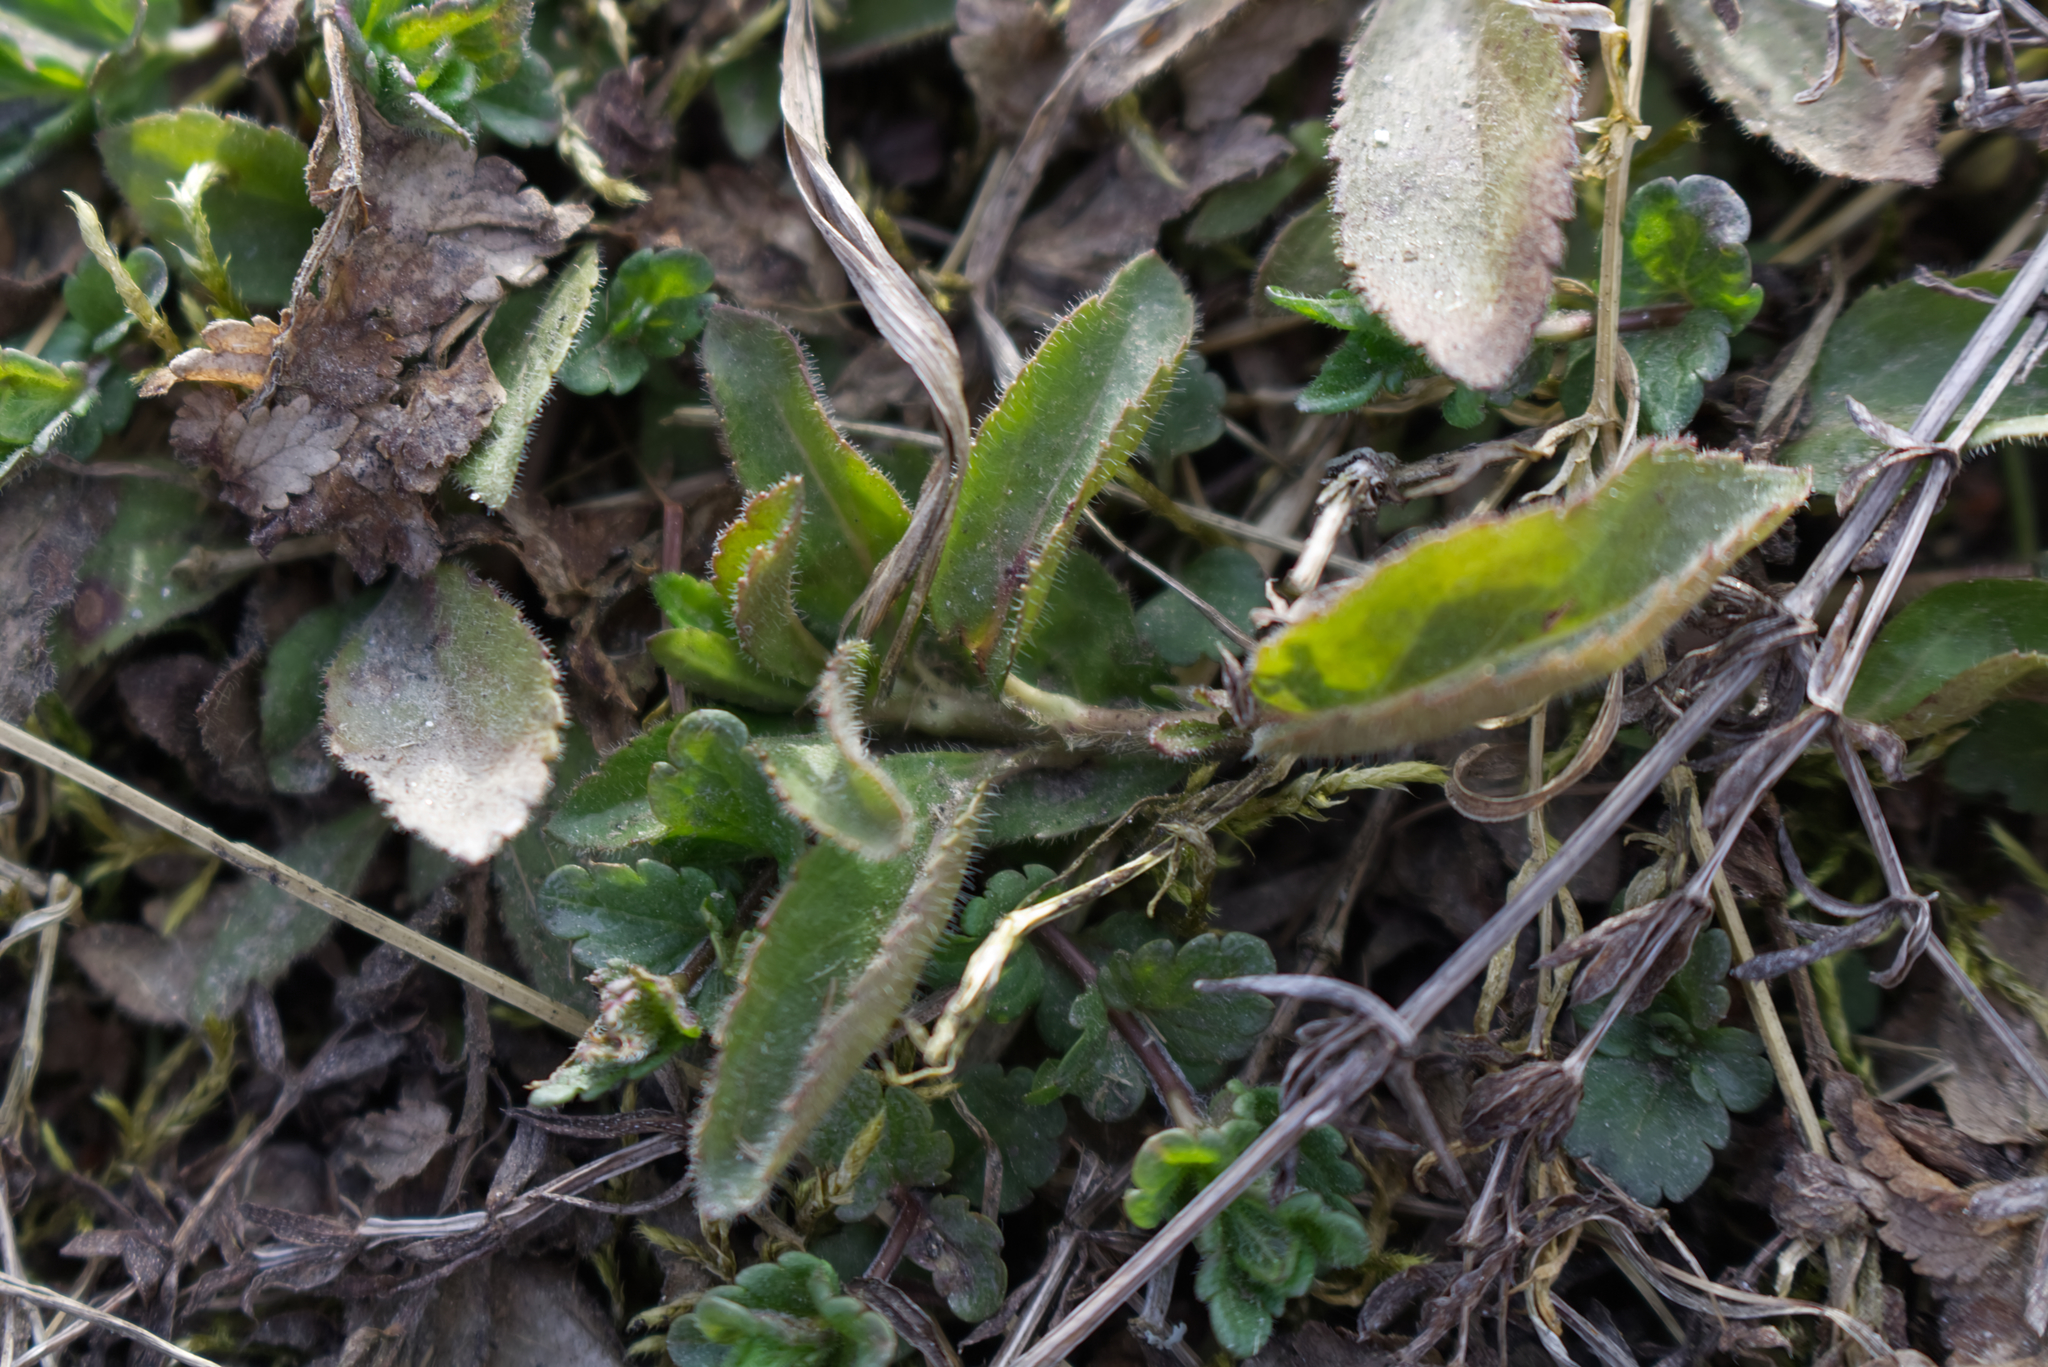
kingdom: Plantae
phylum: Tracheophyta
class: Magnoliopsida
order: Lamiales
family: Plantaginaceae
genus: Veronica
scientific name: Veronica officinalis
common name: Common speedwell
